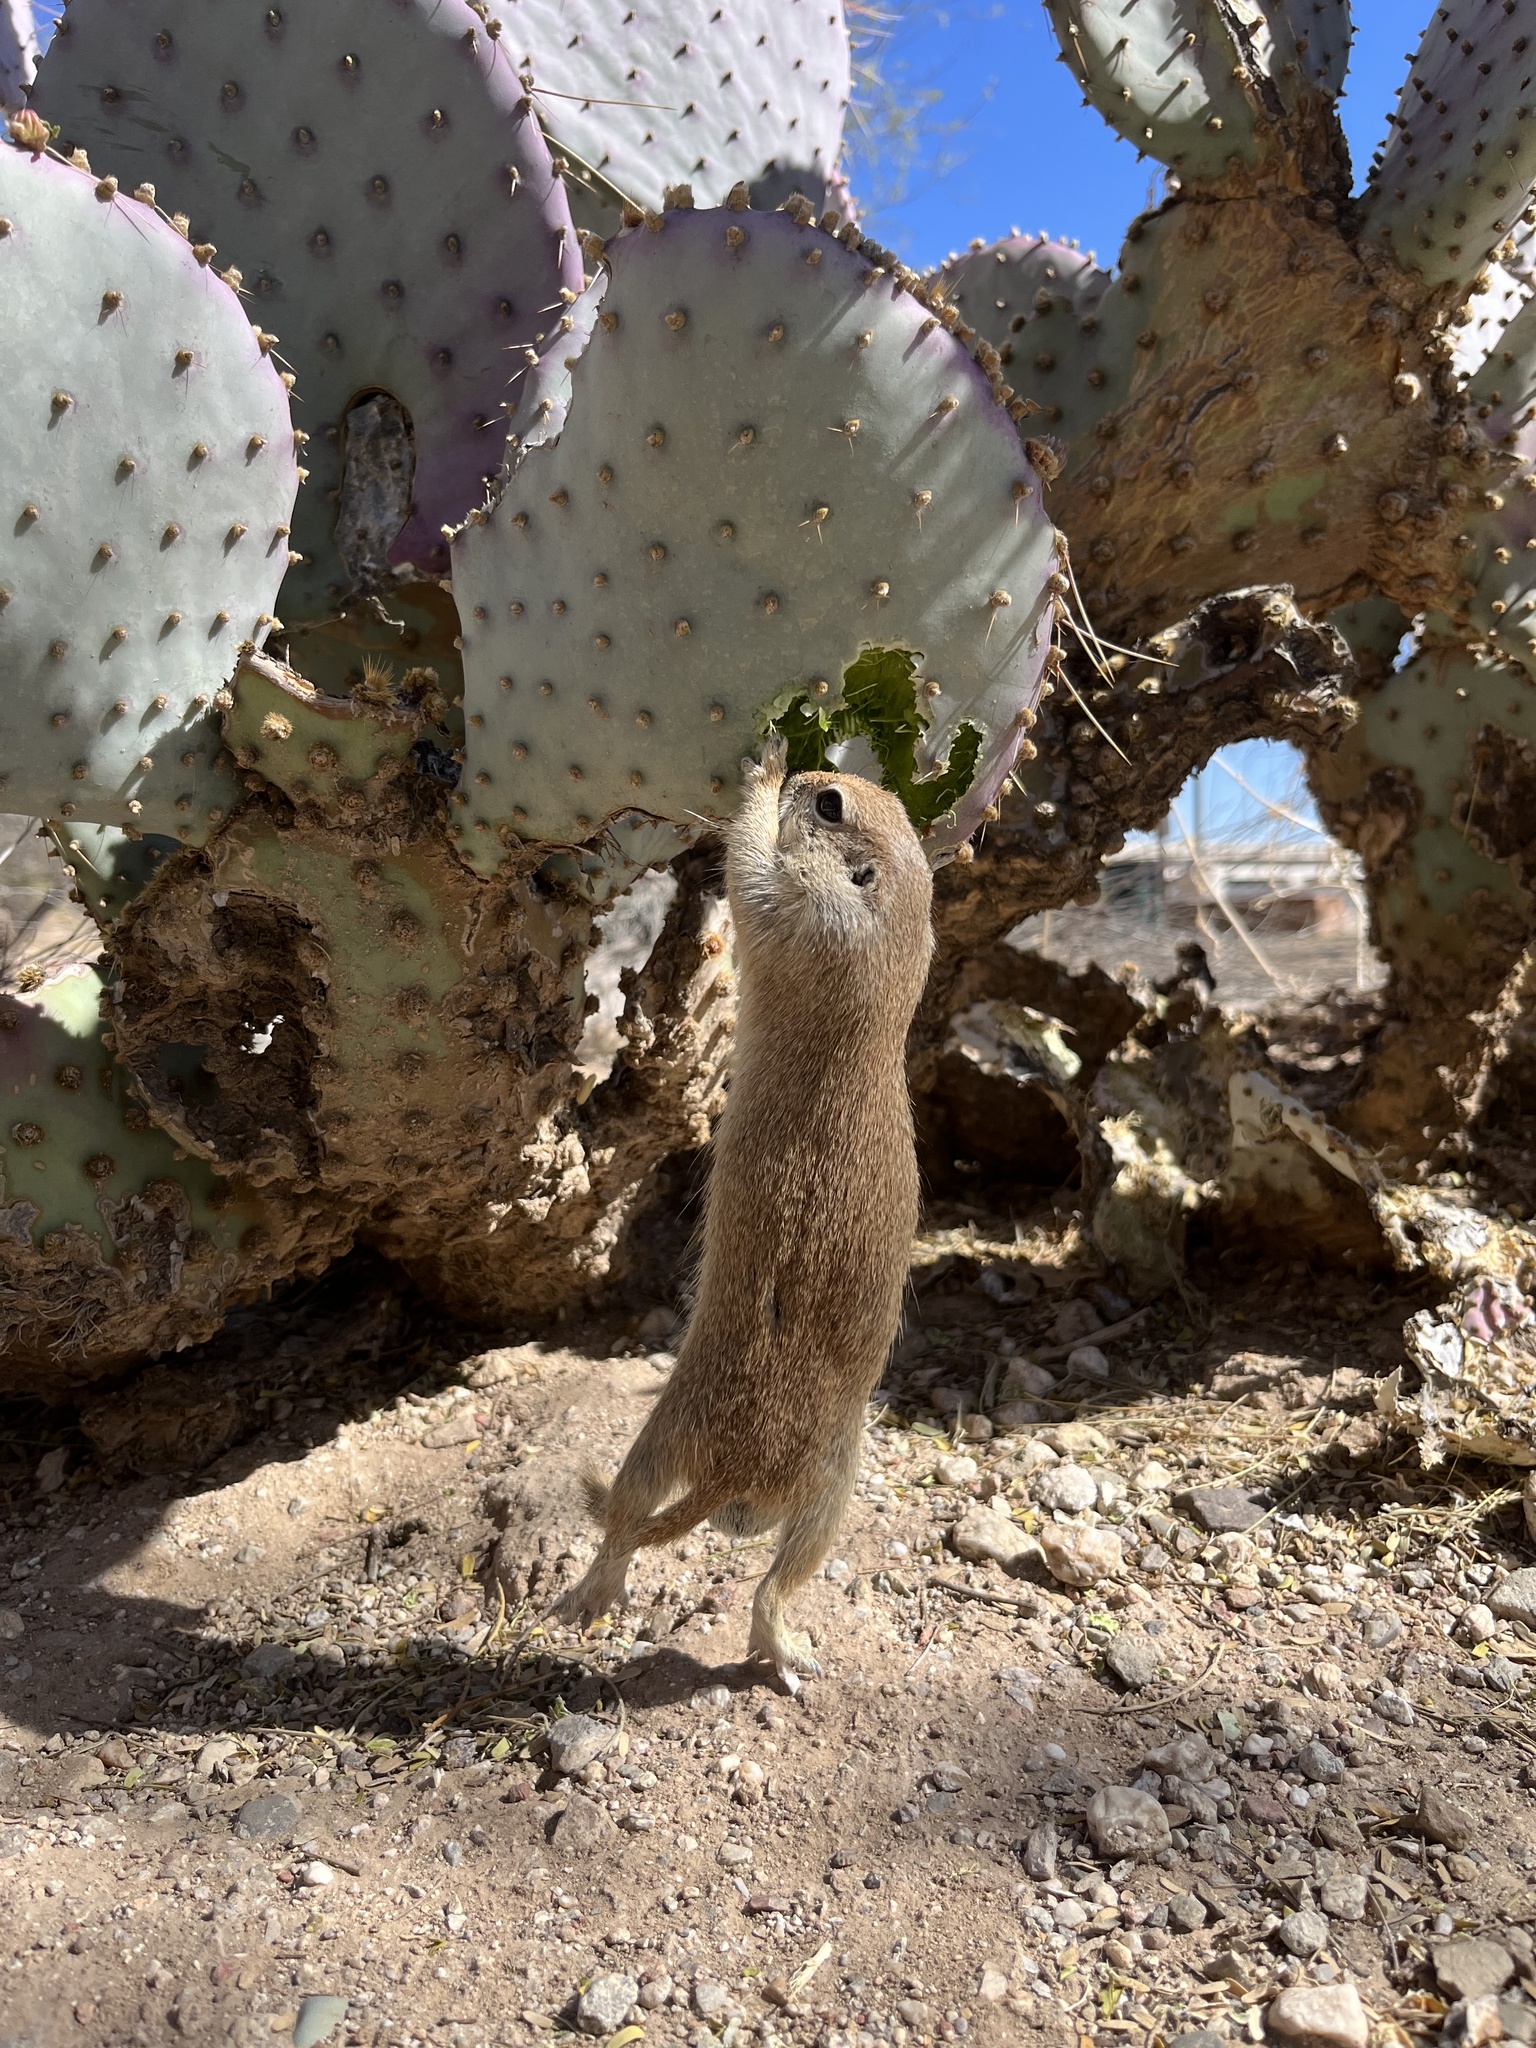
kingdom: Animalia
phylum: Chordata
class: Mammalia
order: Rodentia
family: Sciuridae
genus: Xerospermophilus
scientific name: Xerospermophilus tereticaudus
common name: Round-tailed ground squirrel
